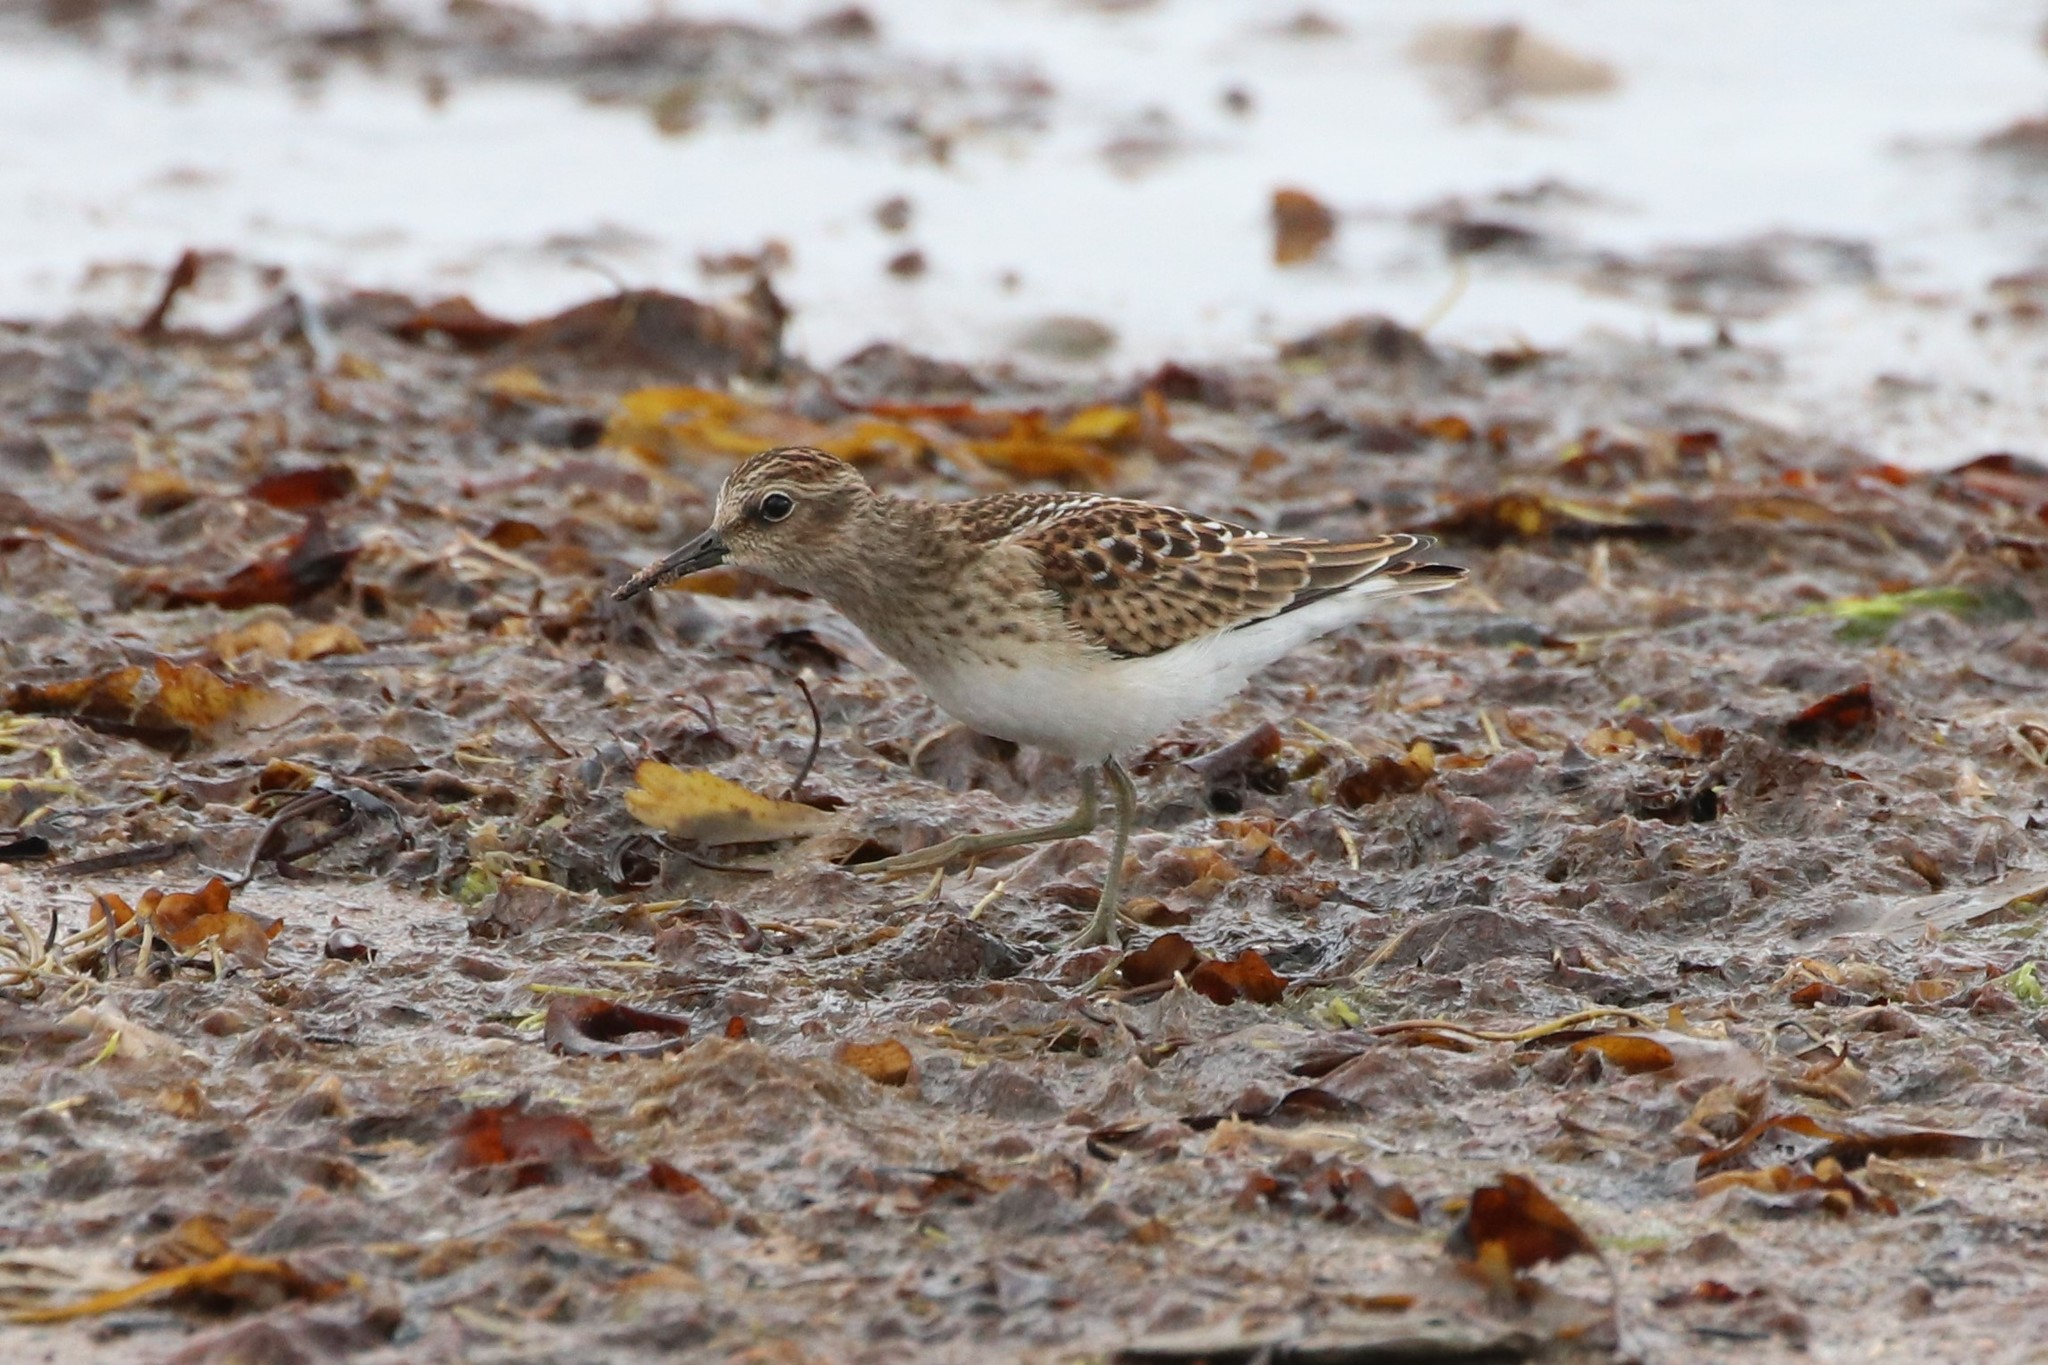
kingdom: Animalia
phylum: Chordata
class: Aves
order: Charadriiformes
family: Scolopacidae
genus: Calidris
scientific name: Calidris minutilla
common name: Least sandpiper
